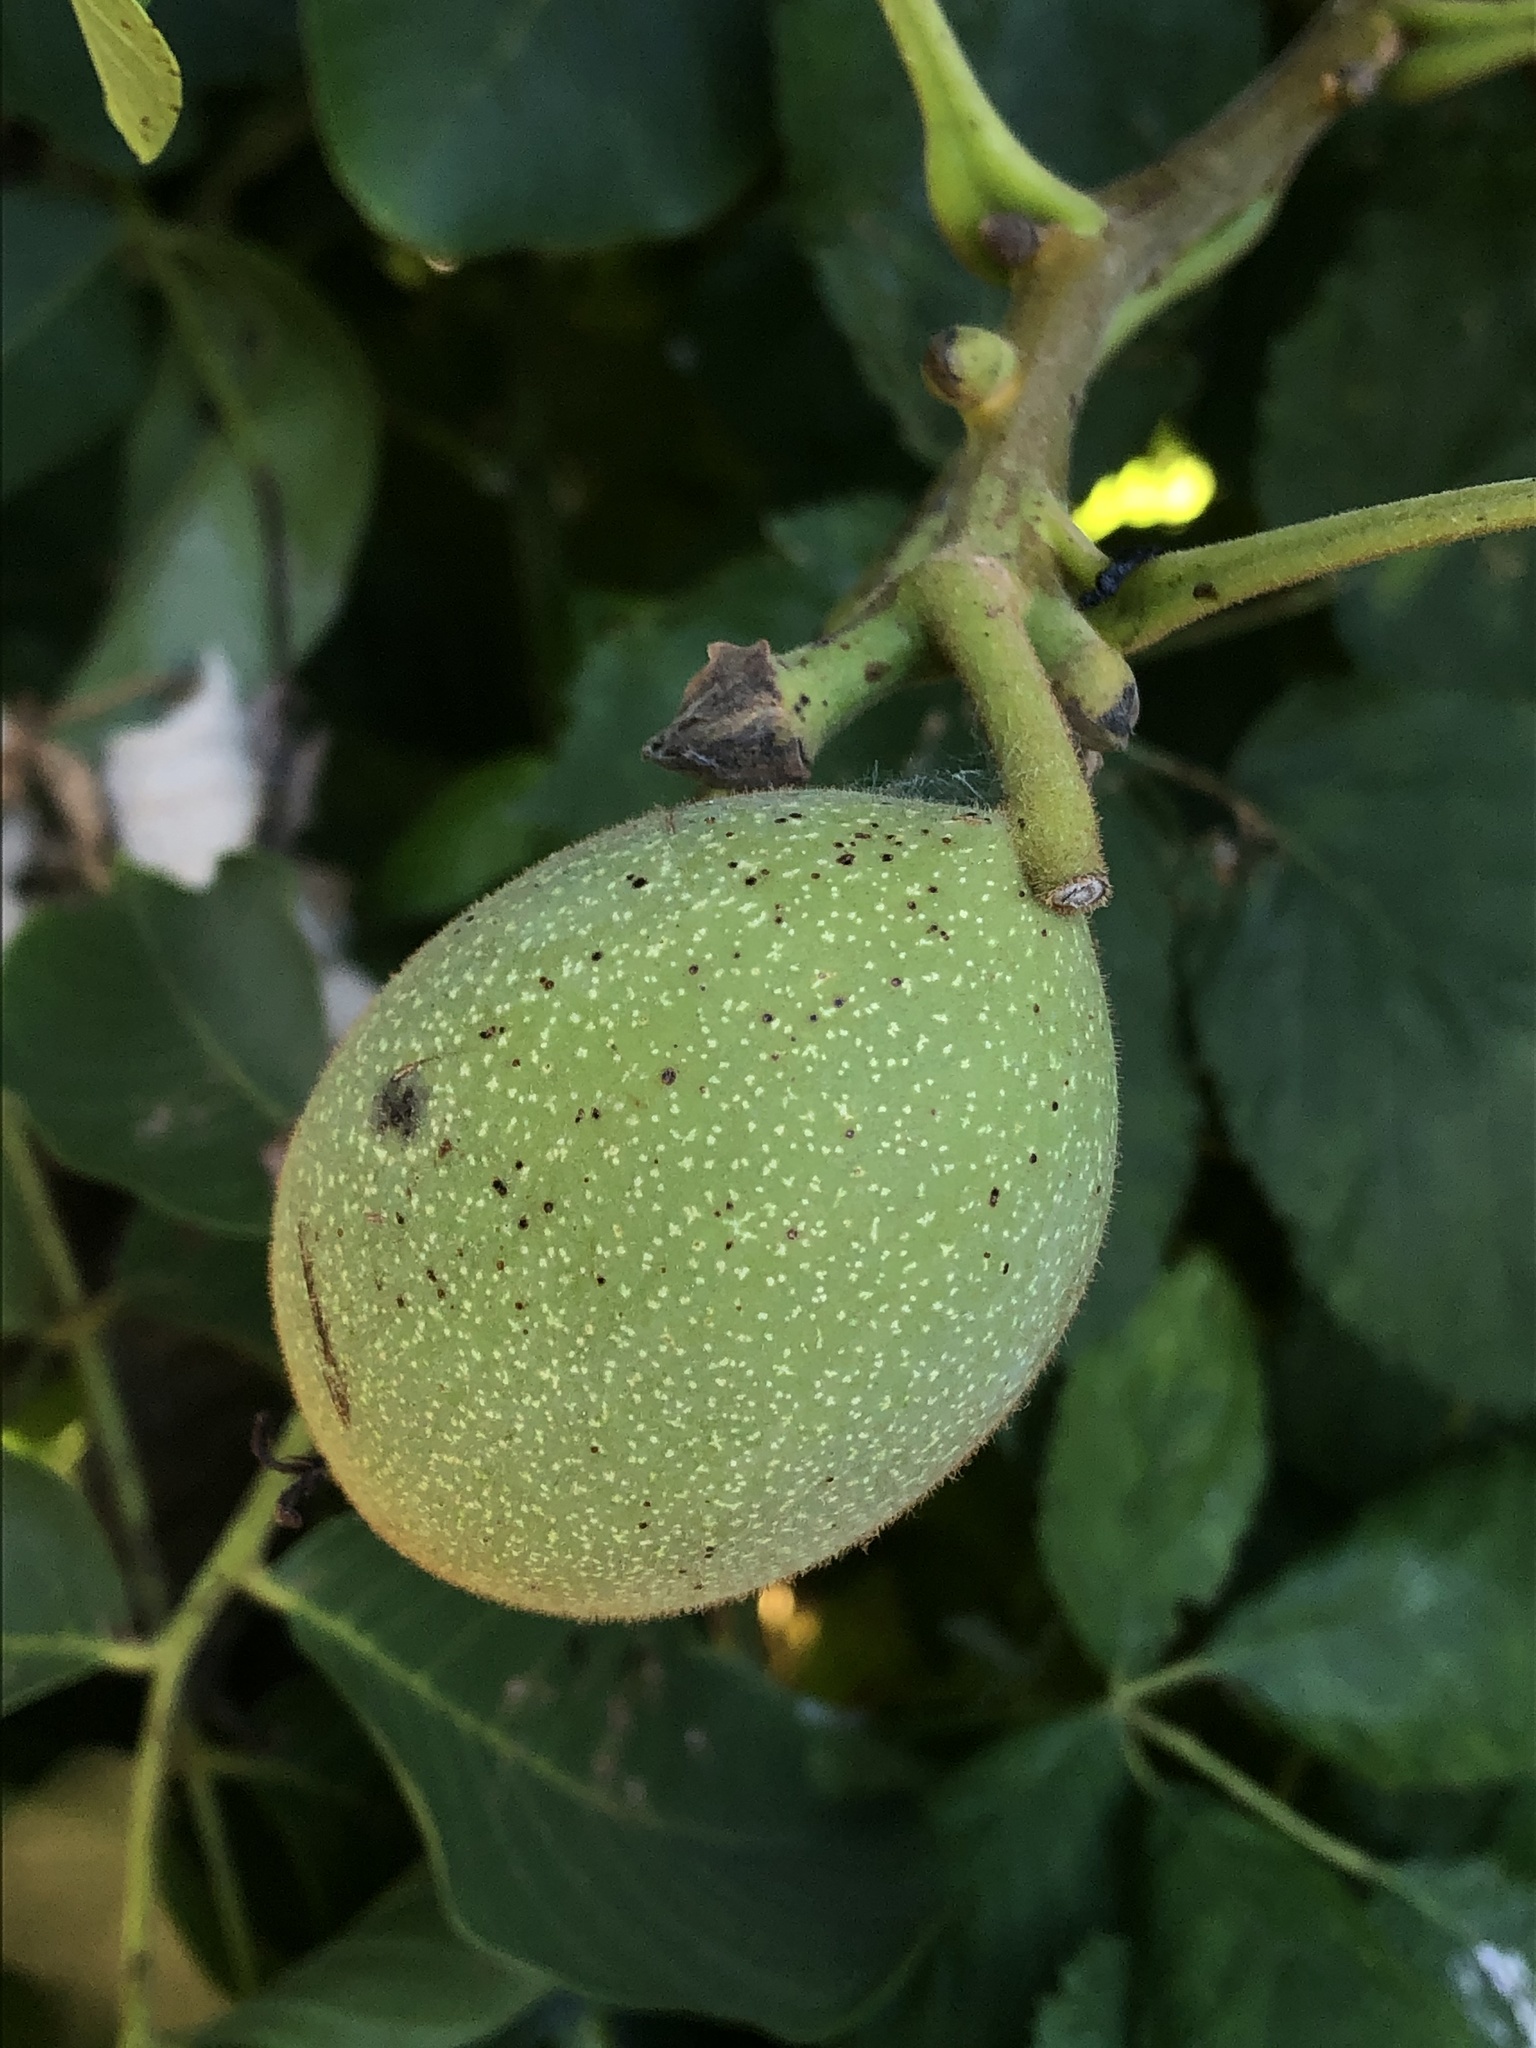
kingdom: Plantae
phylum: Tracheophyta
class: Magnoliopsida
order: Fagales
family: Juglandaceae
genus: Juglans
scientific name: Juglans regia
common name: Walnut
